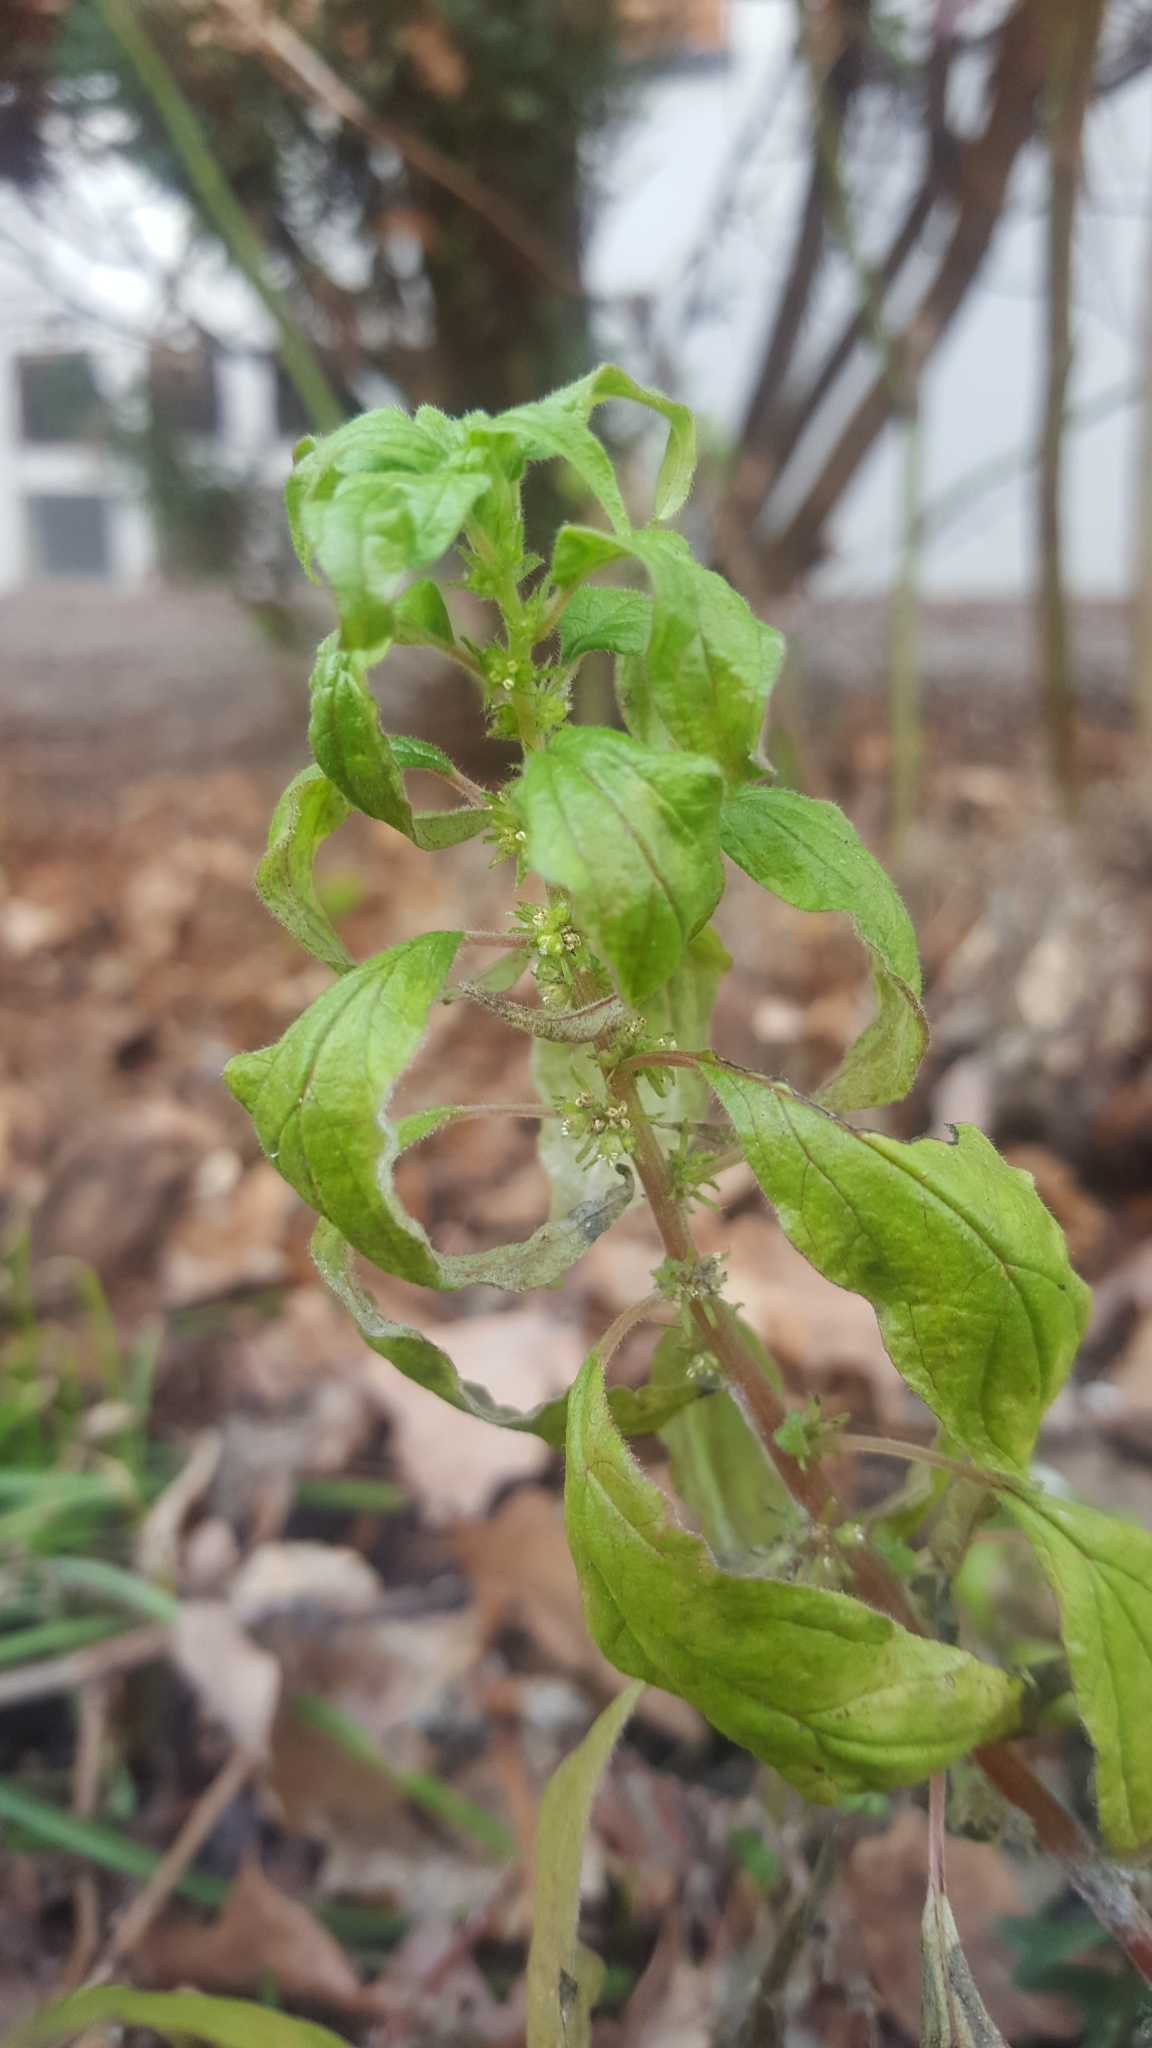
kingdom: Plantae
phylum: Tracheophyta
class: Magnoliopsida
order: Rosales
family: Urticaceae
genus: Parietaria
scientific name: Parietaria pensylvanica
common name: Pennsylvania pellitory
